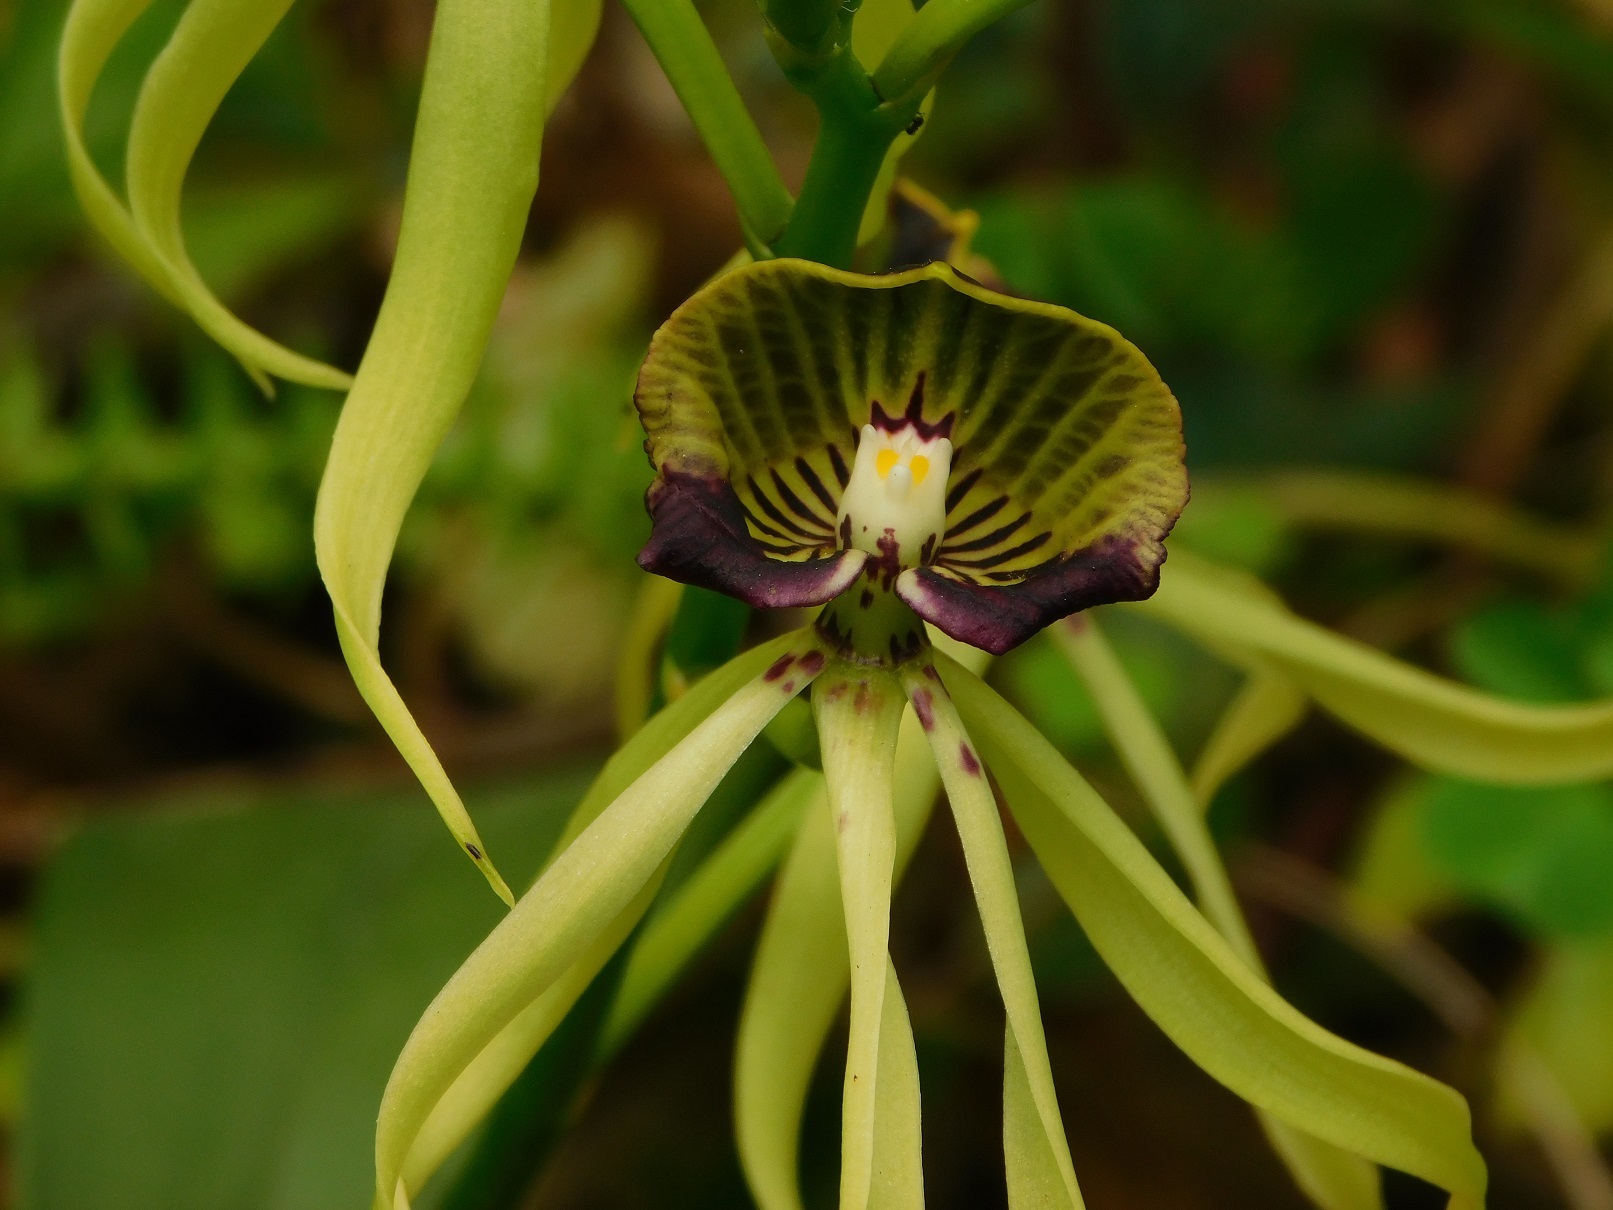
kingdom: Plantae
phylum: Tracheophyta
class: Liliopsida
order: Asparagales
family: Orchidaceae
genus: Prosthechea
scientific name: Prosthechea cochleata
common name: Clamshell orchid
